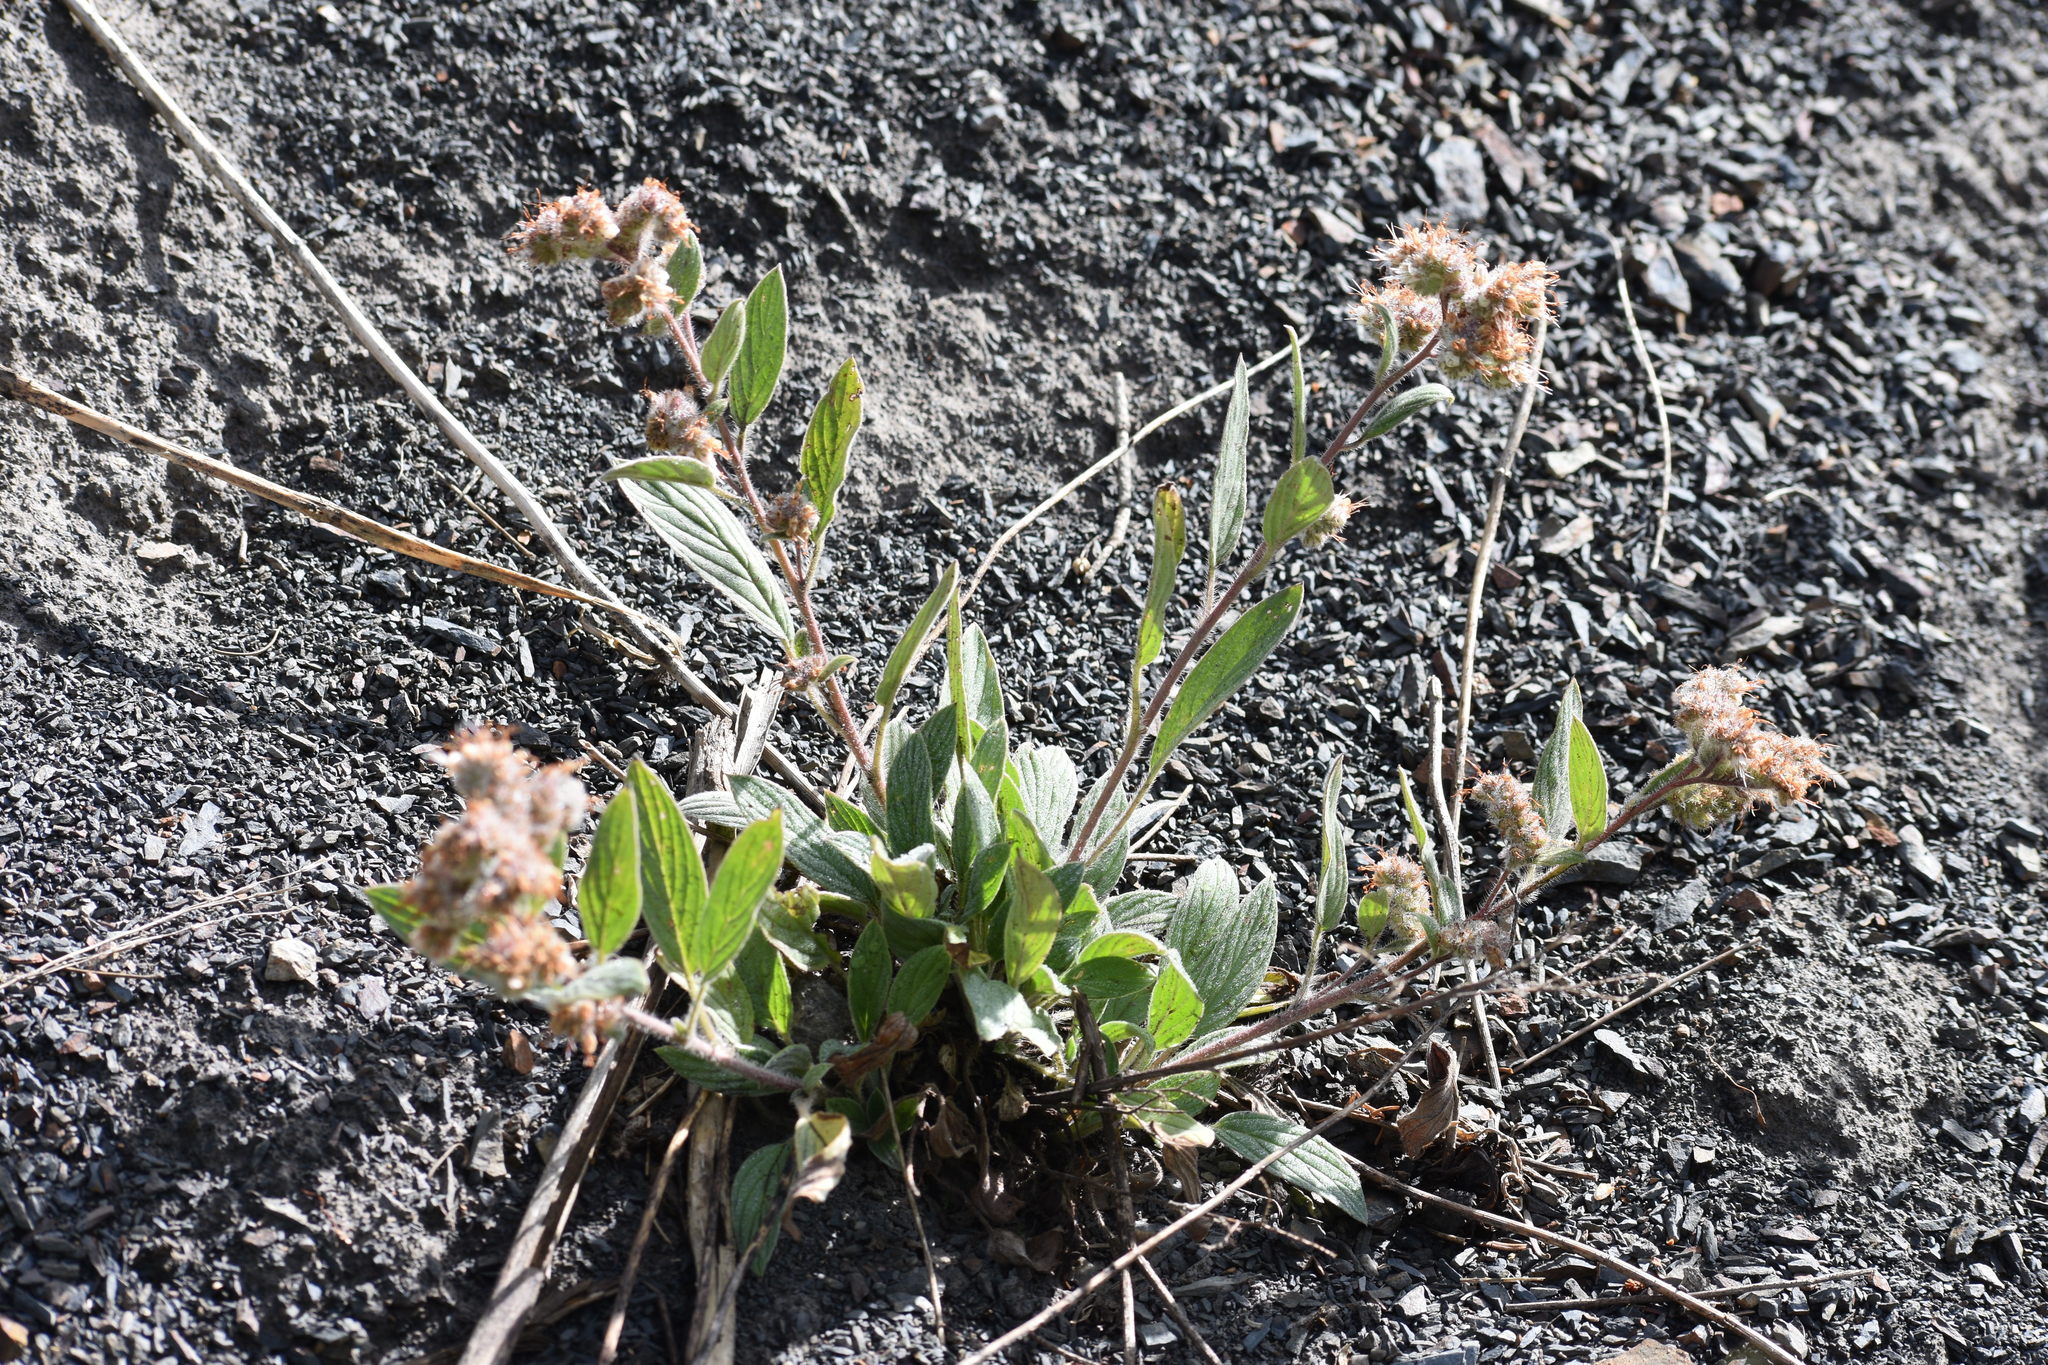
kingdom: Plantae
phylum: Tracheophyta
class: Magnoliopsida
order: Boraginales
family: Hydrophyllaceae
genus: Phacelia
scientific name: Phacelia hastata
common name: Silver-leaved phacelia
